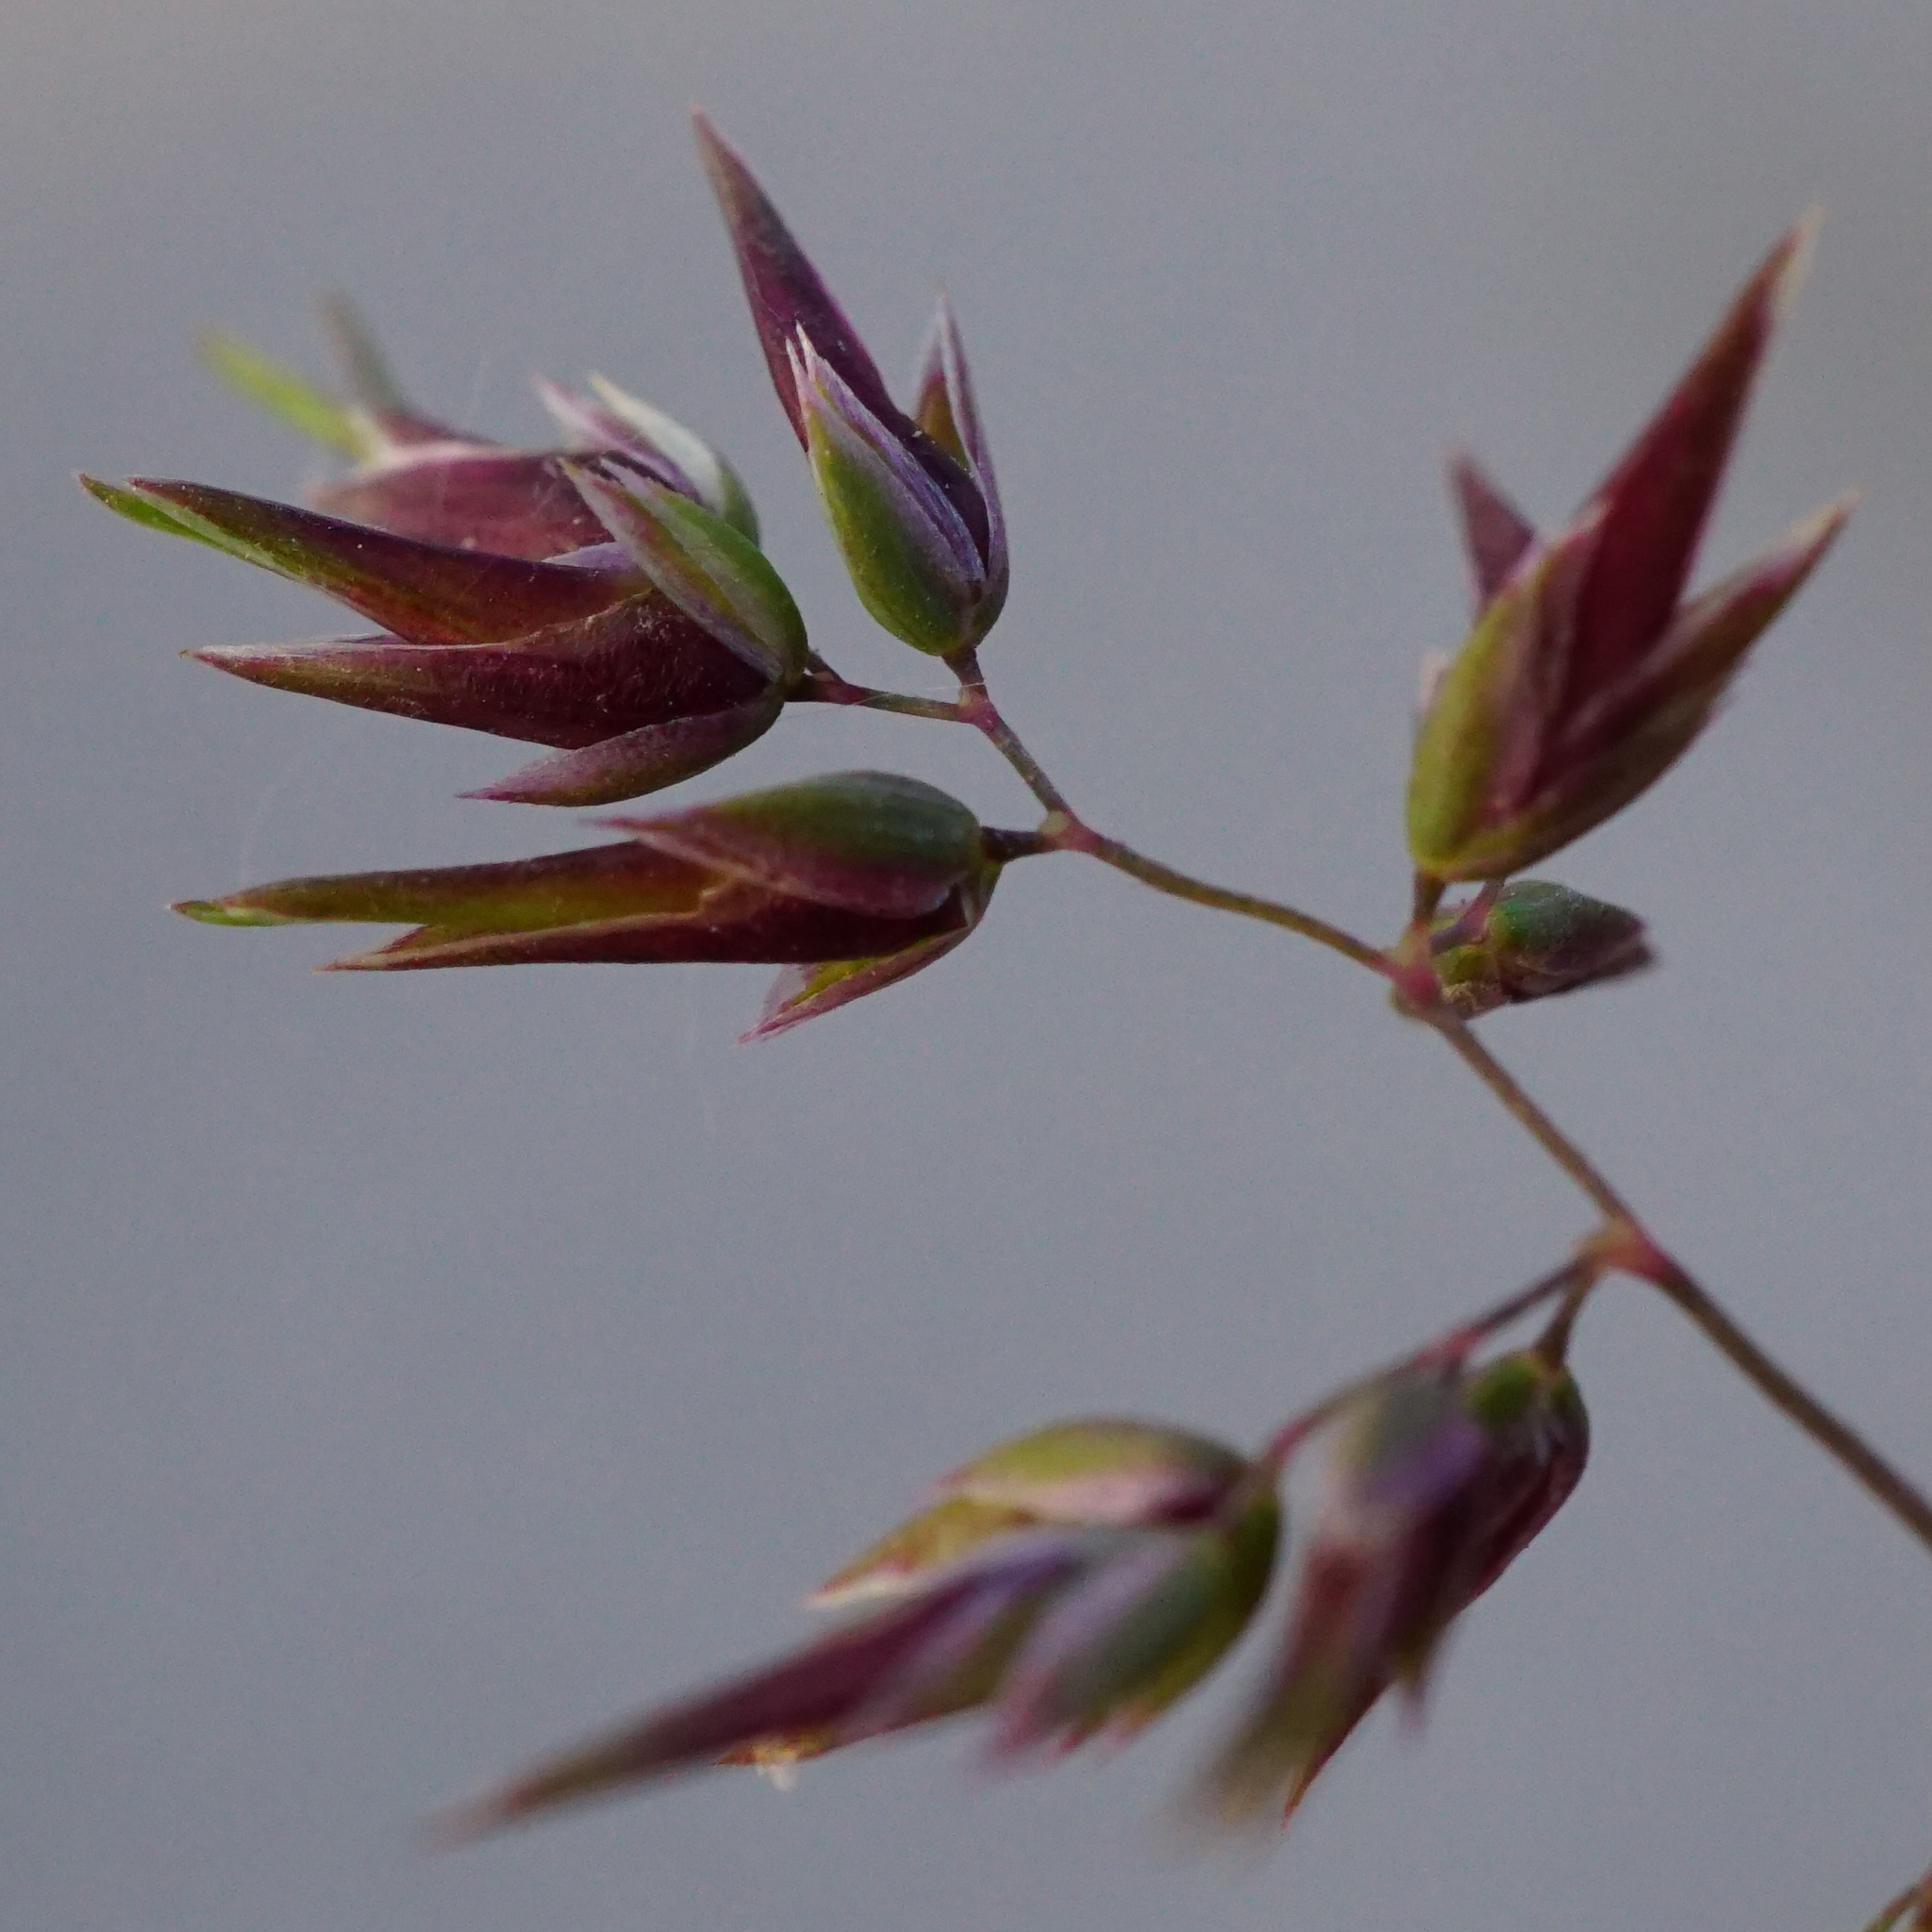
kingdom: Plantae
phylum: Tracheophyta
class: Liliopsida
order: Poales
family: Poaceae
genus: Poa
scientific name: Poa bulbosa
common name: Bulbous bluegrass
